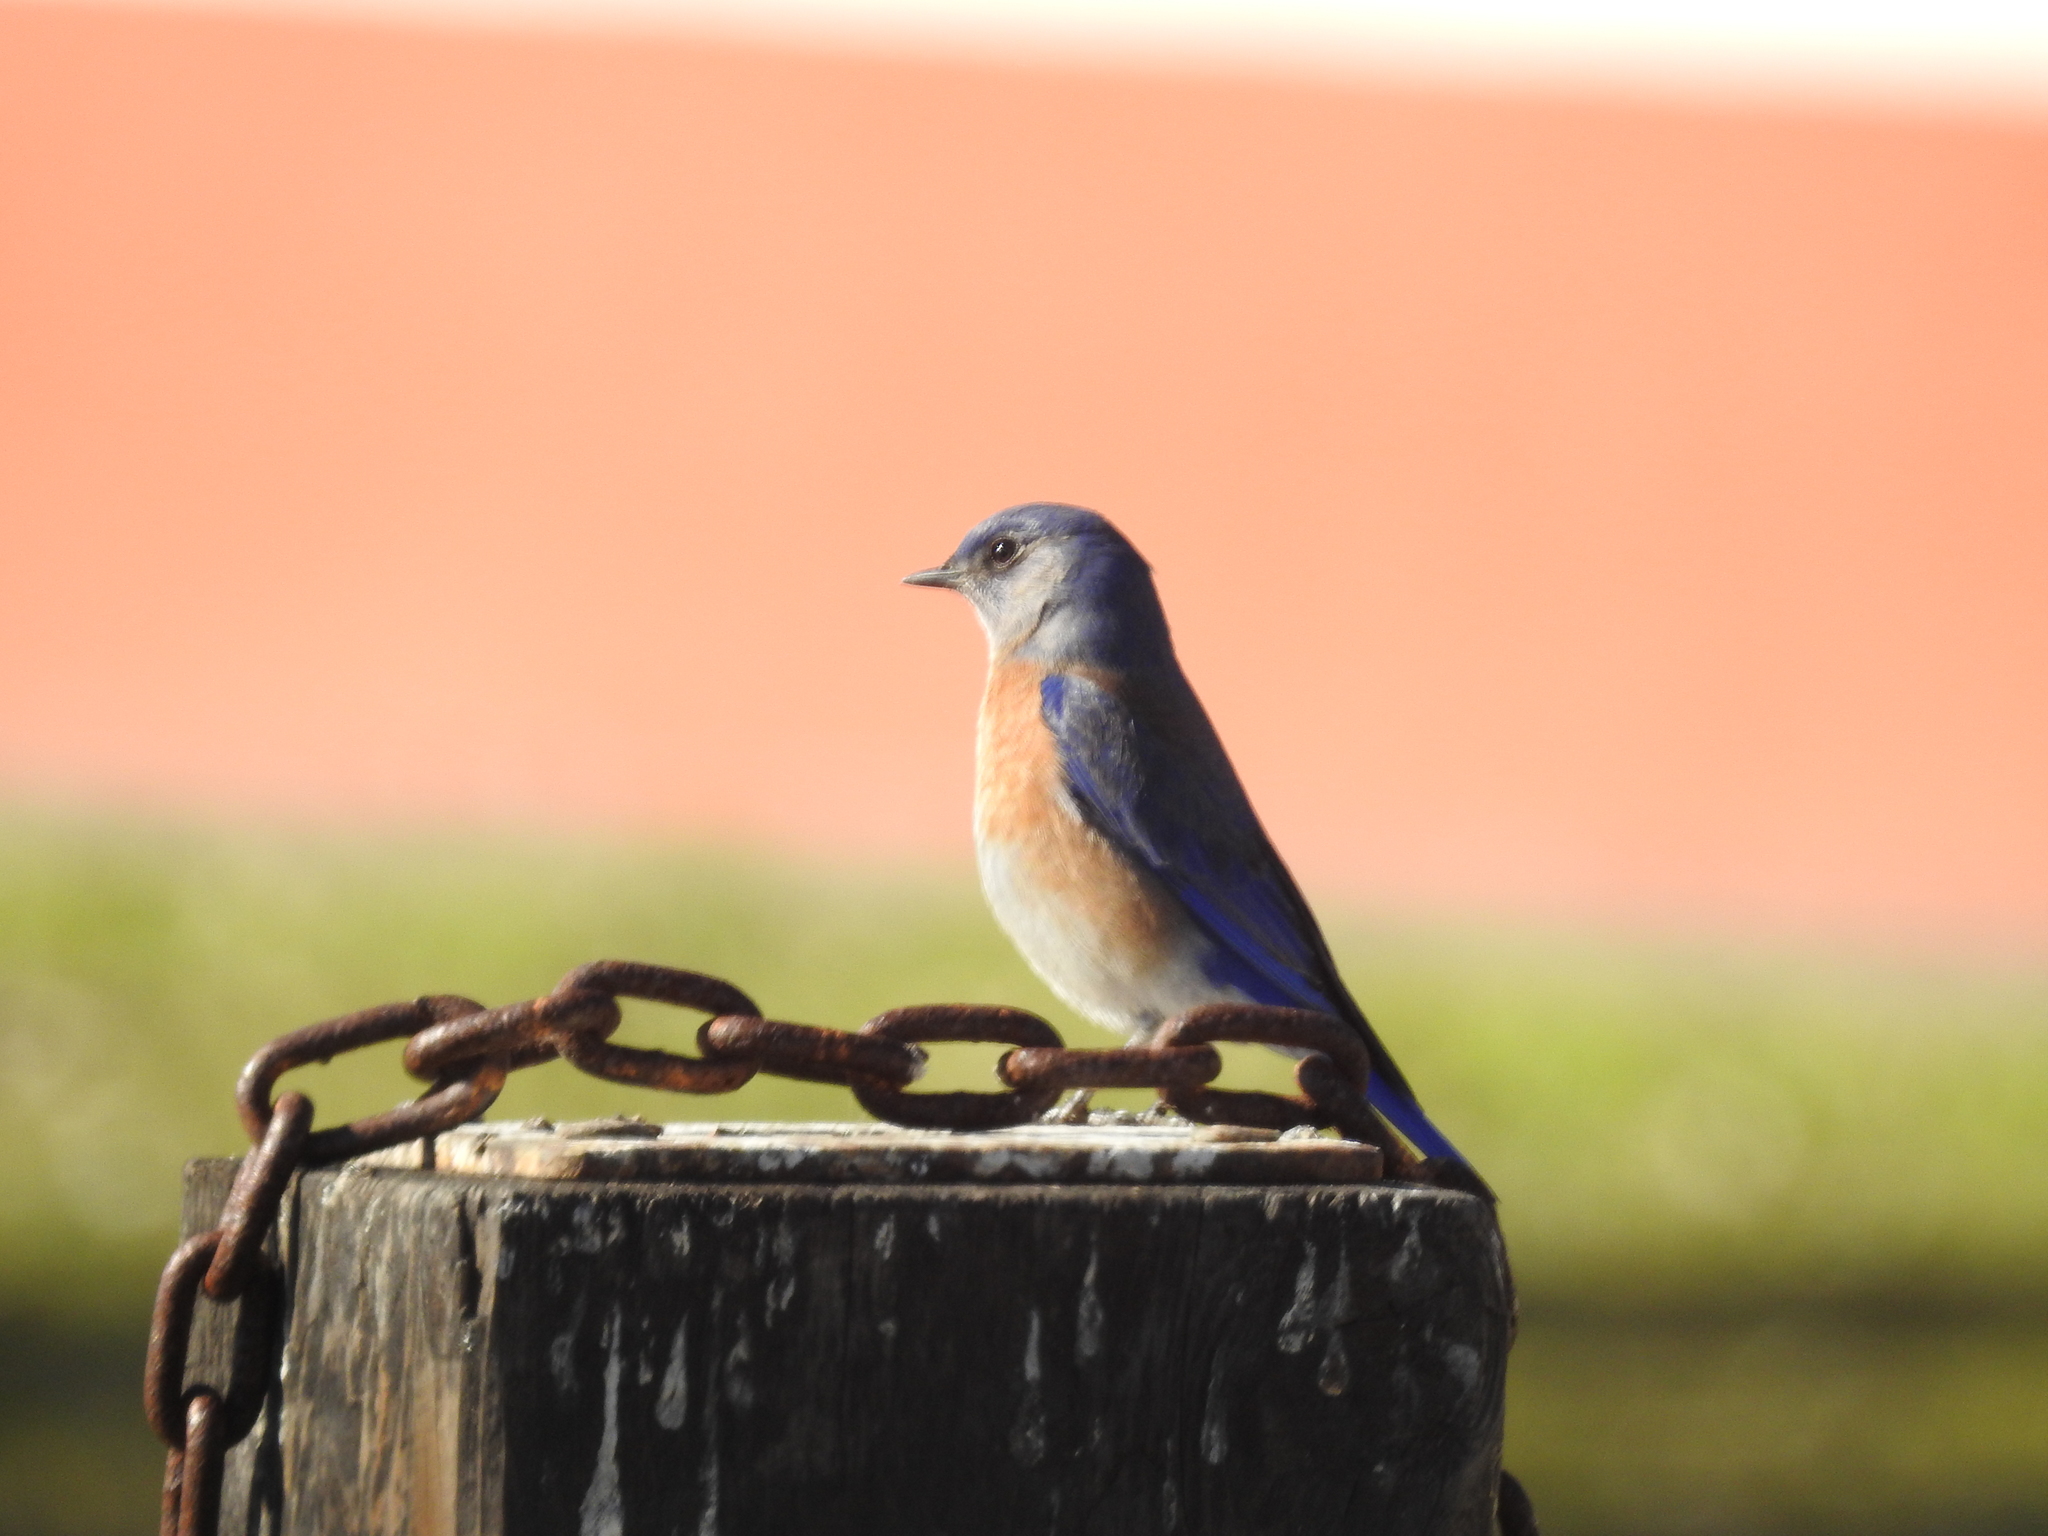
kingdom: Animalia
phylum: Chordata
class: Aves
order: Passeriformes
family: Turdidae
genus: Sialia
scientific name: Sialia mexicana
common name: Western bluebird
